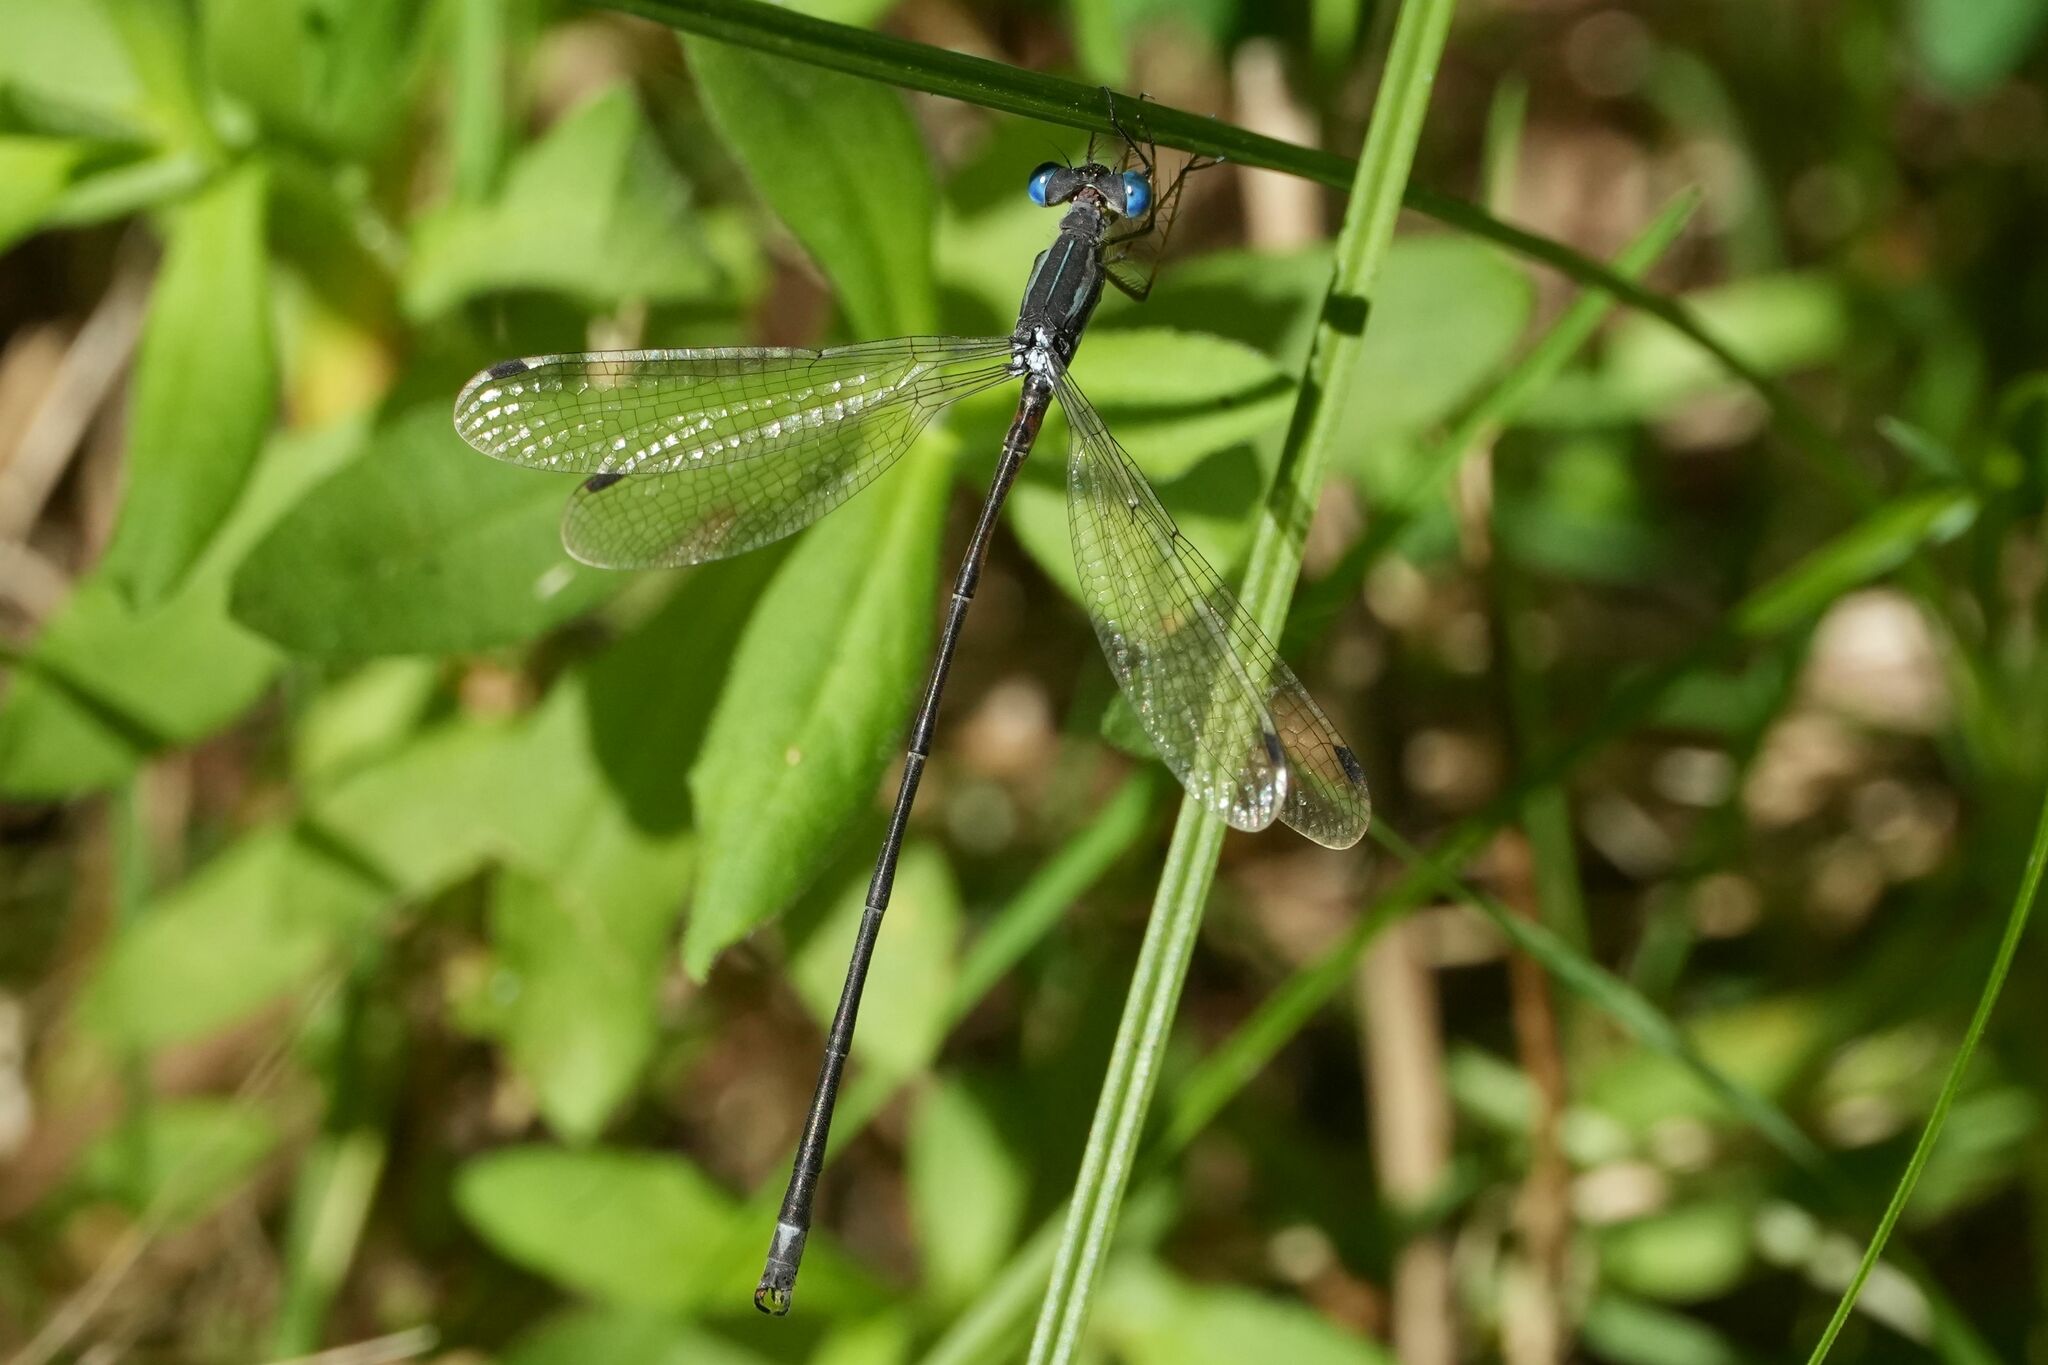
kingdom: Animalia
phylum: Arthropoda
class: Insecta
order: Odonata
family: Lestidae
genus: Lestes
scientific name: Lestes rectangularis
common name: Slender spreadwing
